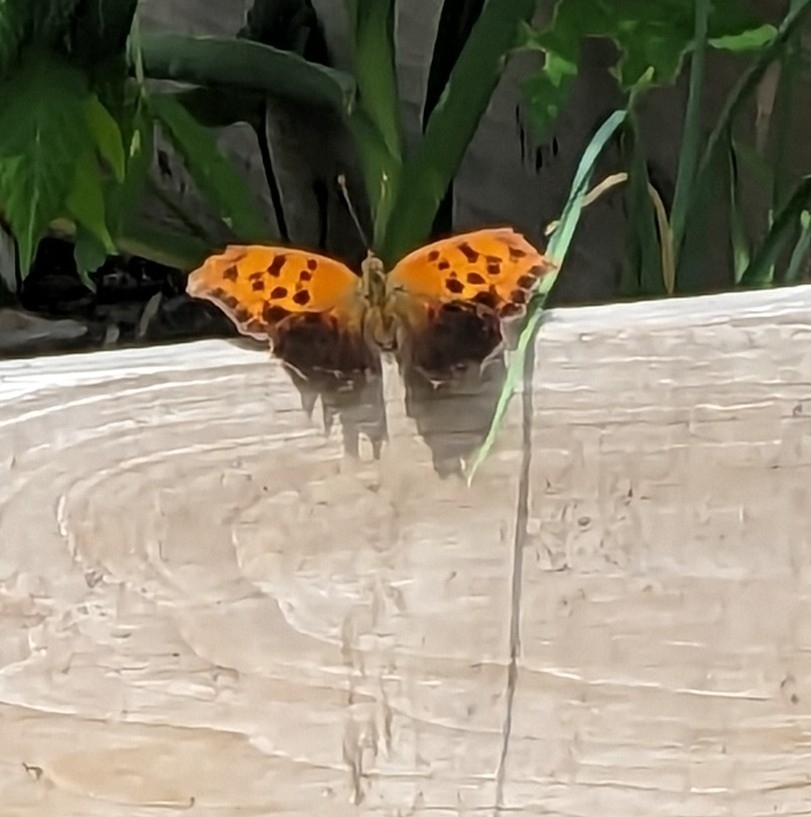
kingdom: Animalia
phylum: Arthropoda
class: Insecta
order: Lepidoptera
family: Nymphalidae
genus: Polygonia
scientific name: Polygonia interrogationis
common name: Question mark
